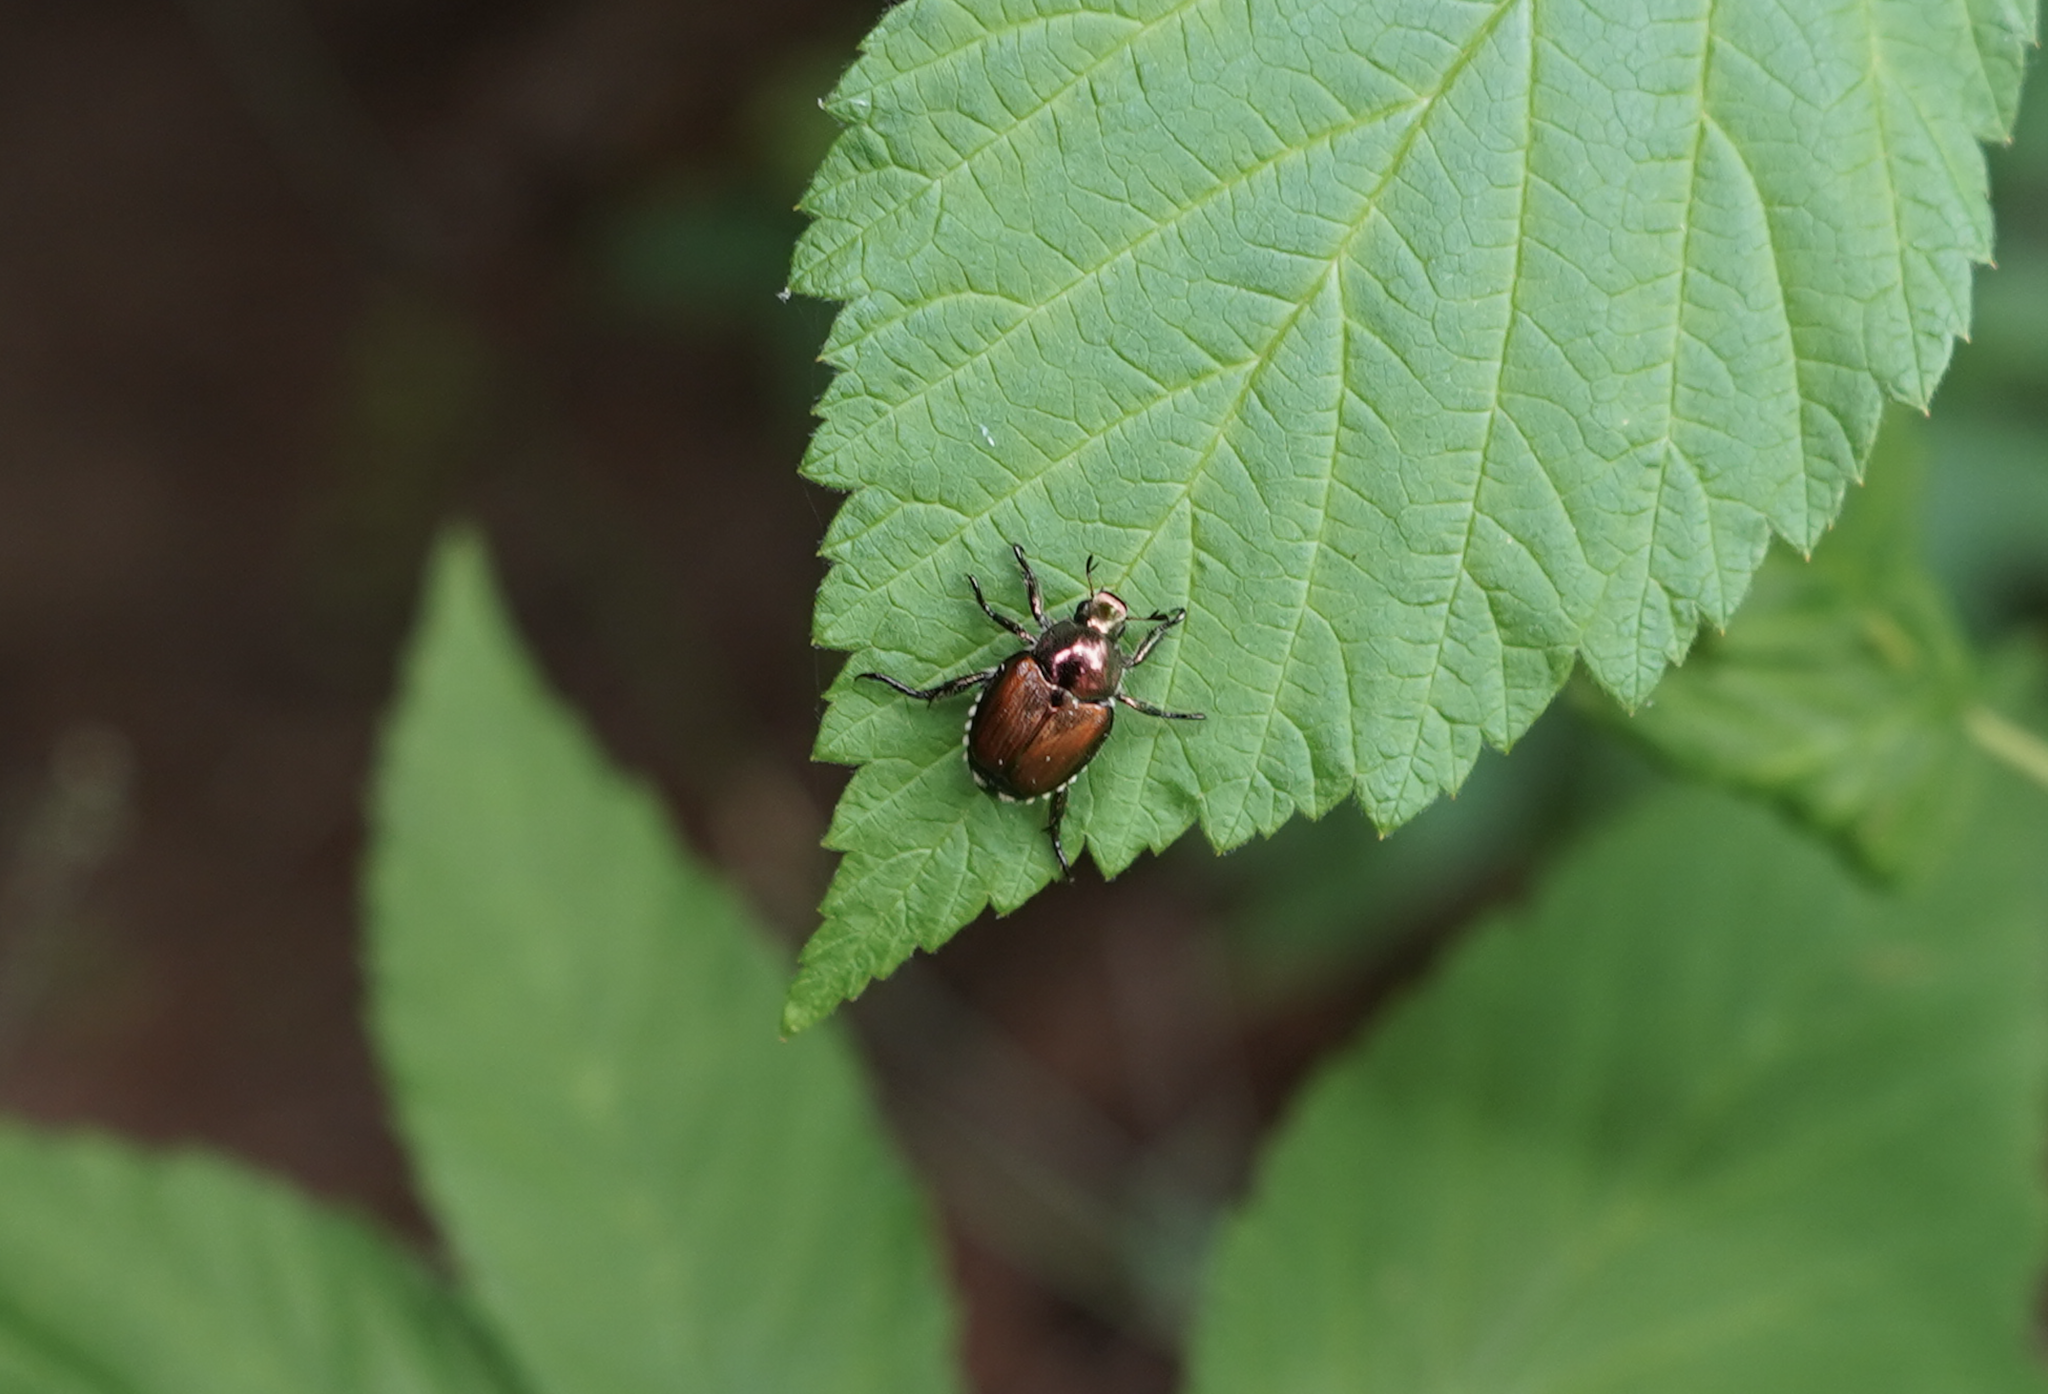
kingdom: Animalia
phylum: Arthropoda
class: Insecta
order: Coleoptera
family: Scarabaeidae
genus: Popillia
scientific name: Popillia japonica
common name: Japanese beetle
